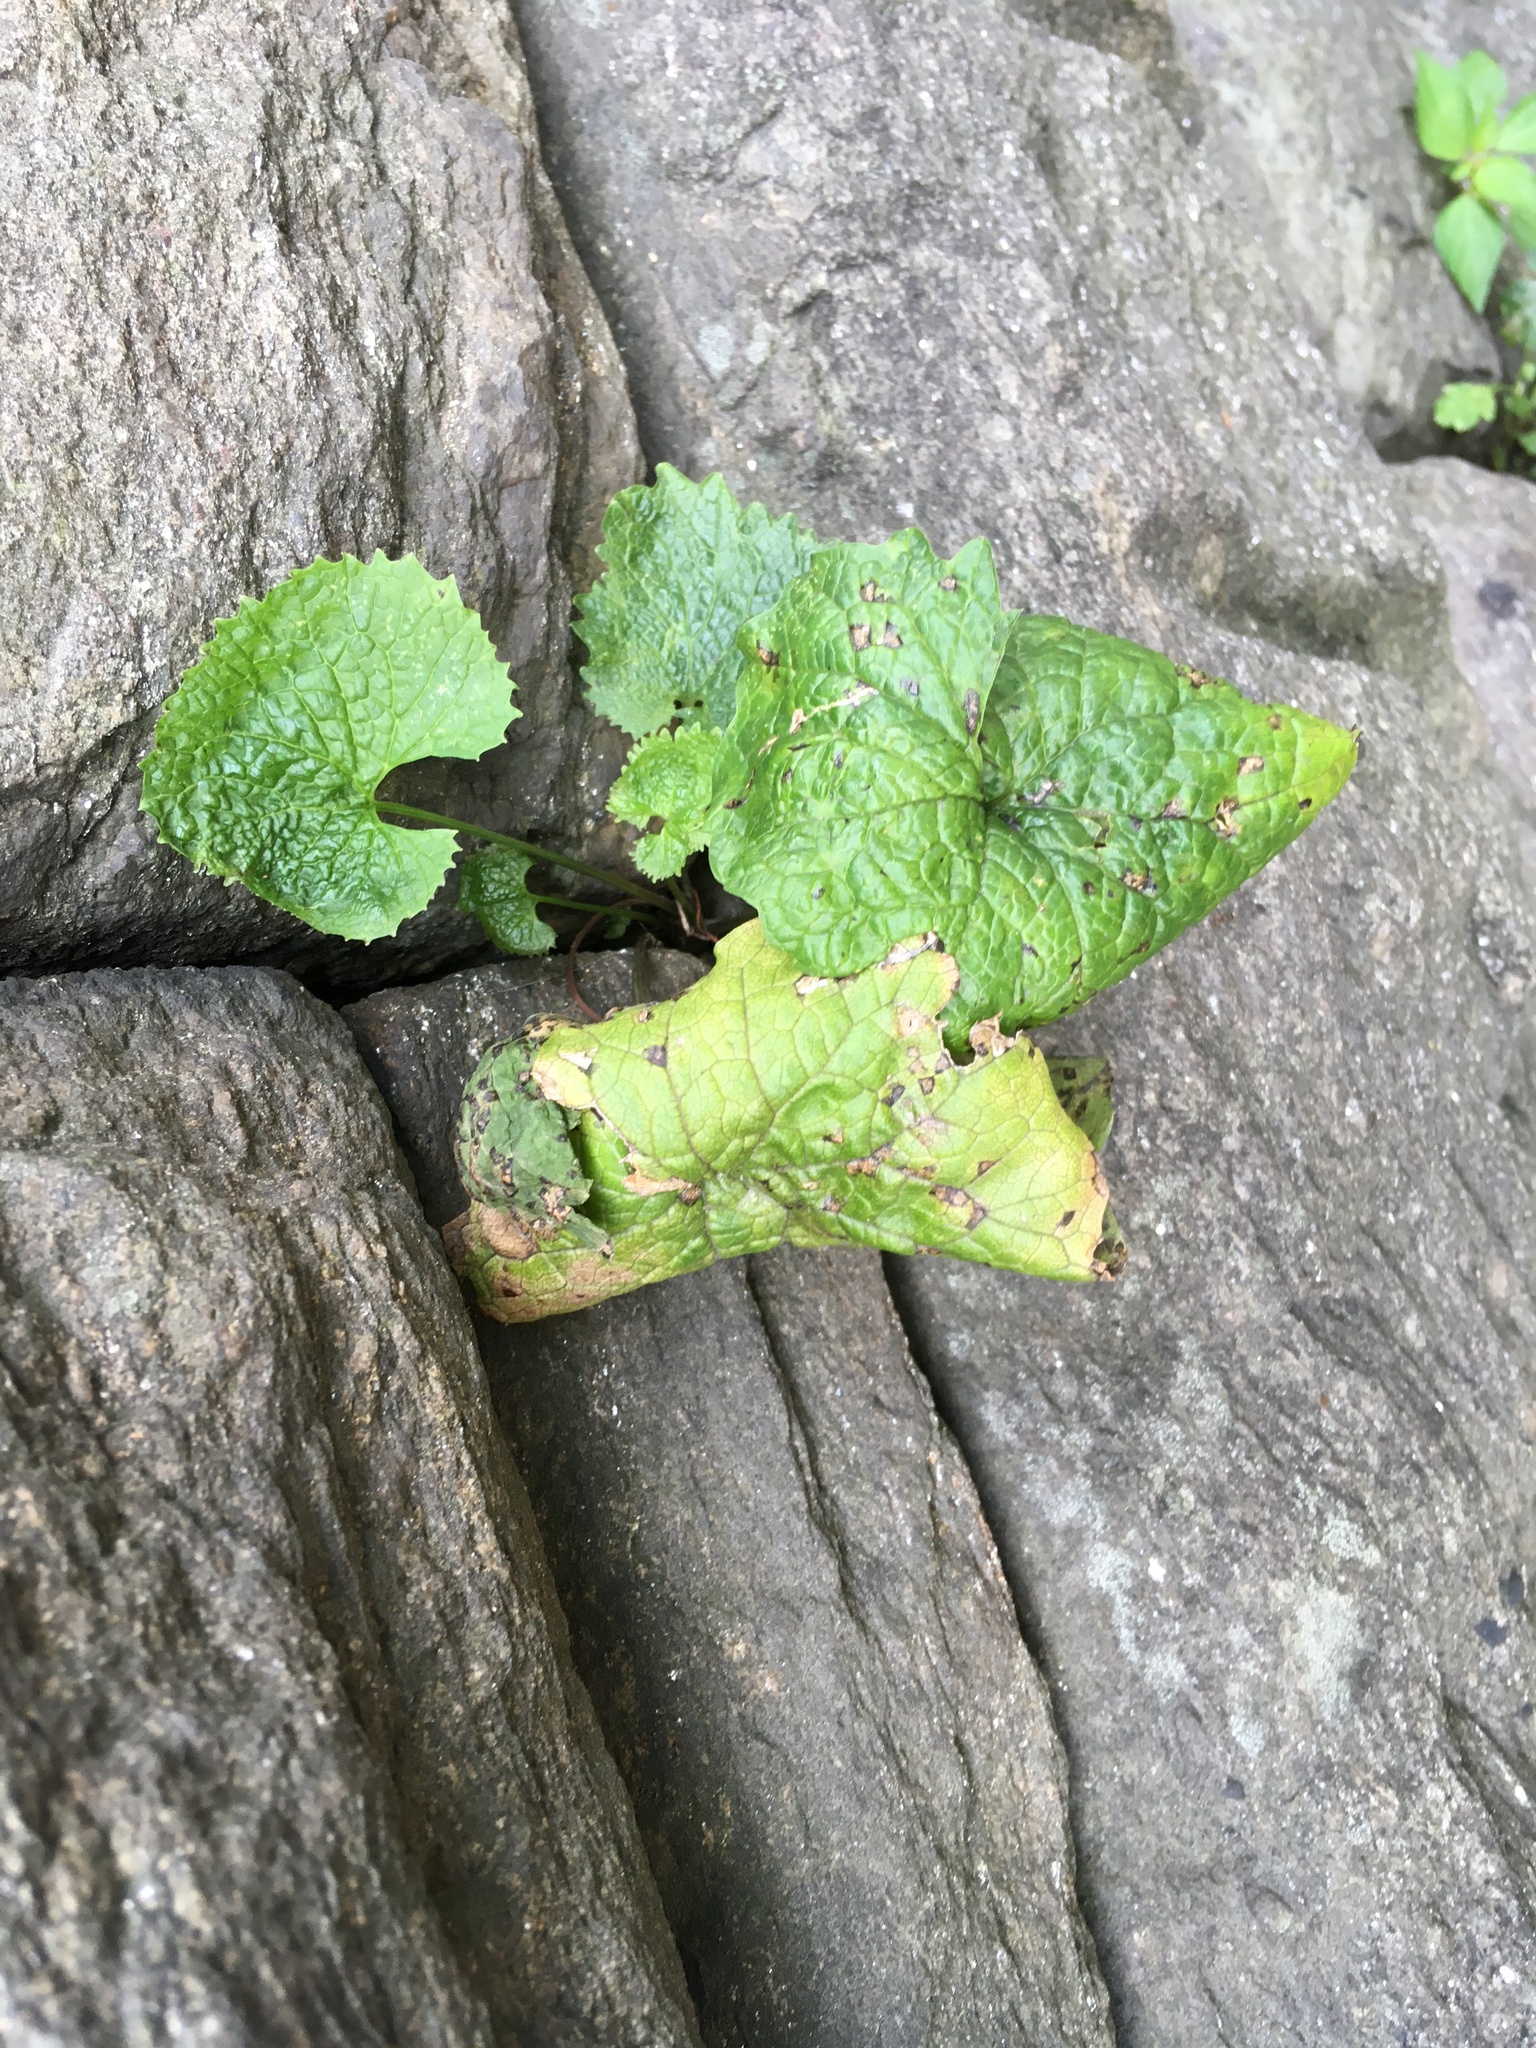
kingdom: Plantae
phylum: Tracheophyta
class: Magnoliopsida
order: Brassicales
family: Brassicaceae
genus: Alliaria
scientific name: Alliaria petiolata
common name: Garlic mustard
